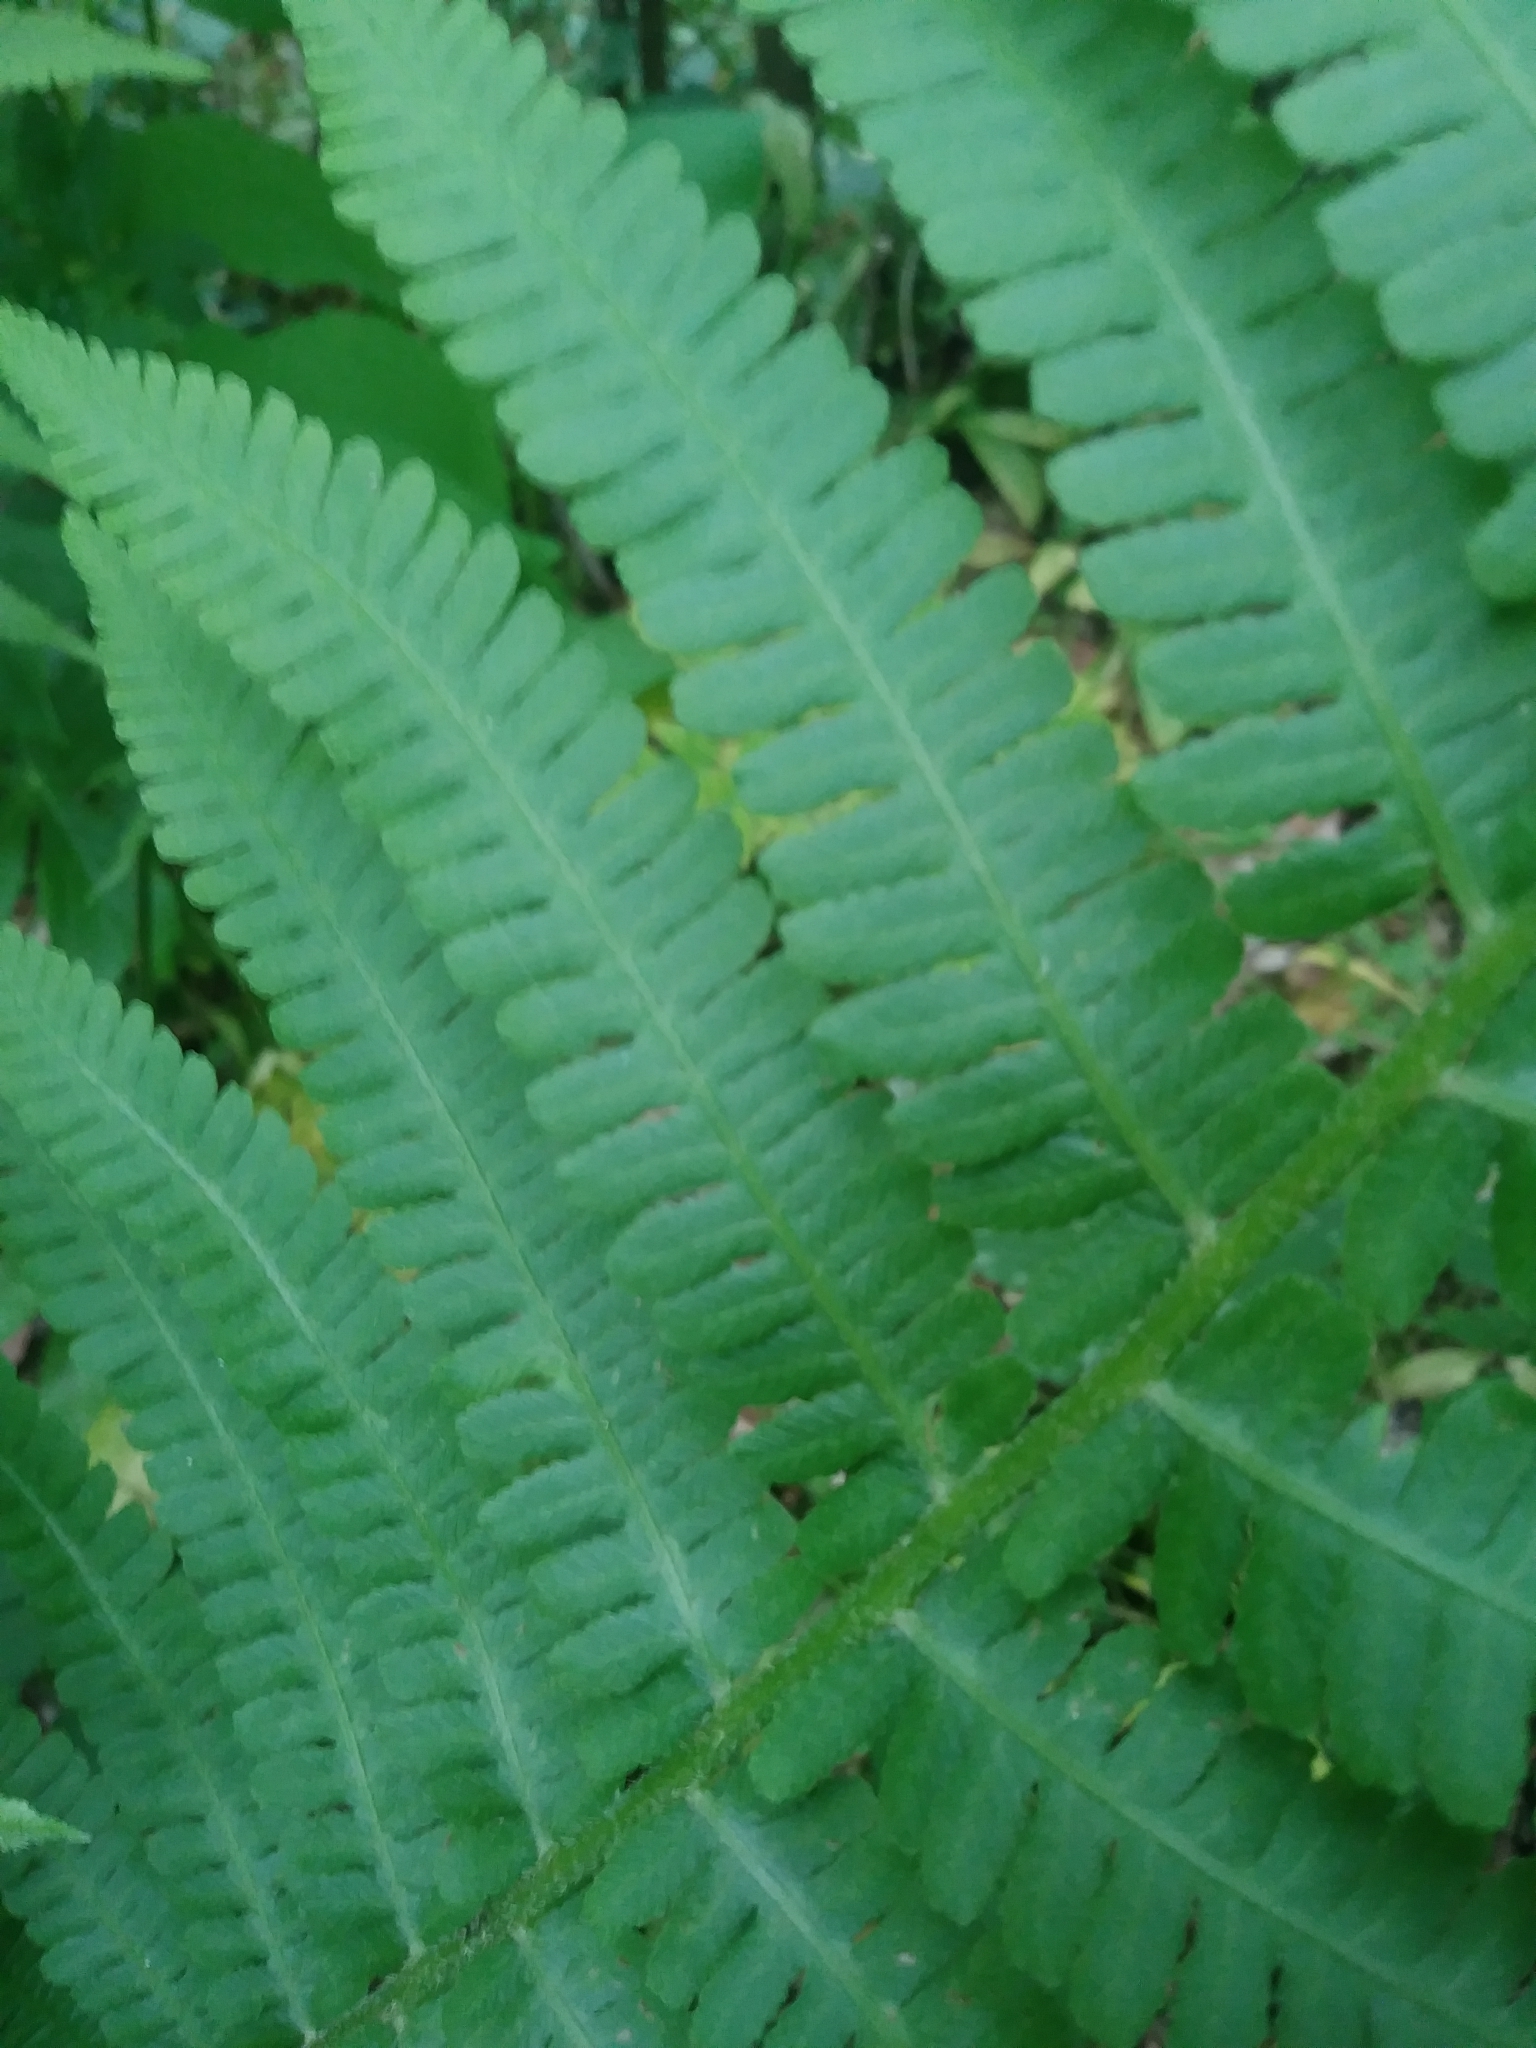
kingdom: Plantae
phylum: Tracheophyta
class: Polypodiopsida
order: Polypodiales
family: Athyriaceae
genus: Deparia
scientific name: Deparia acrostichoides
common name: Silver false spleenwort
